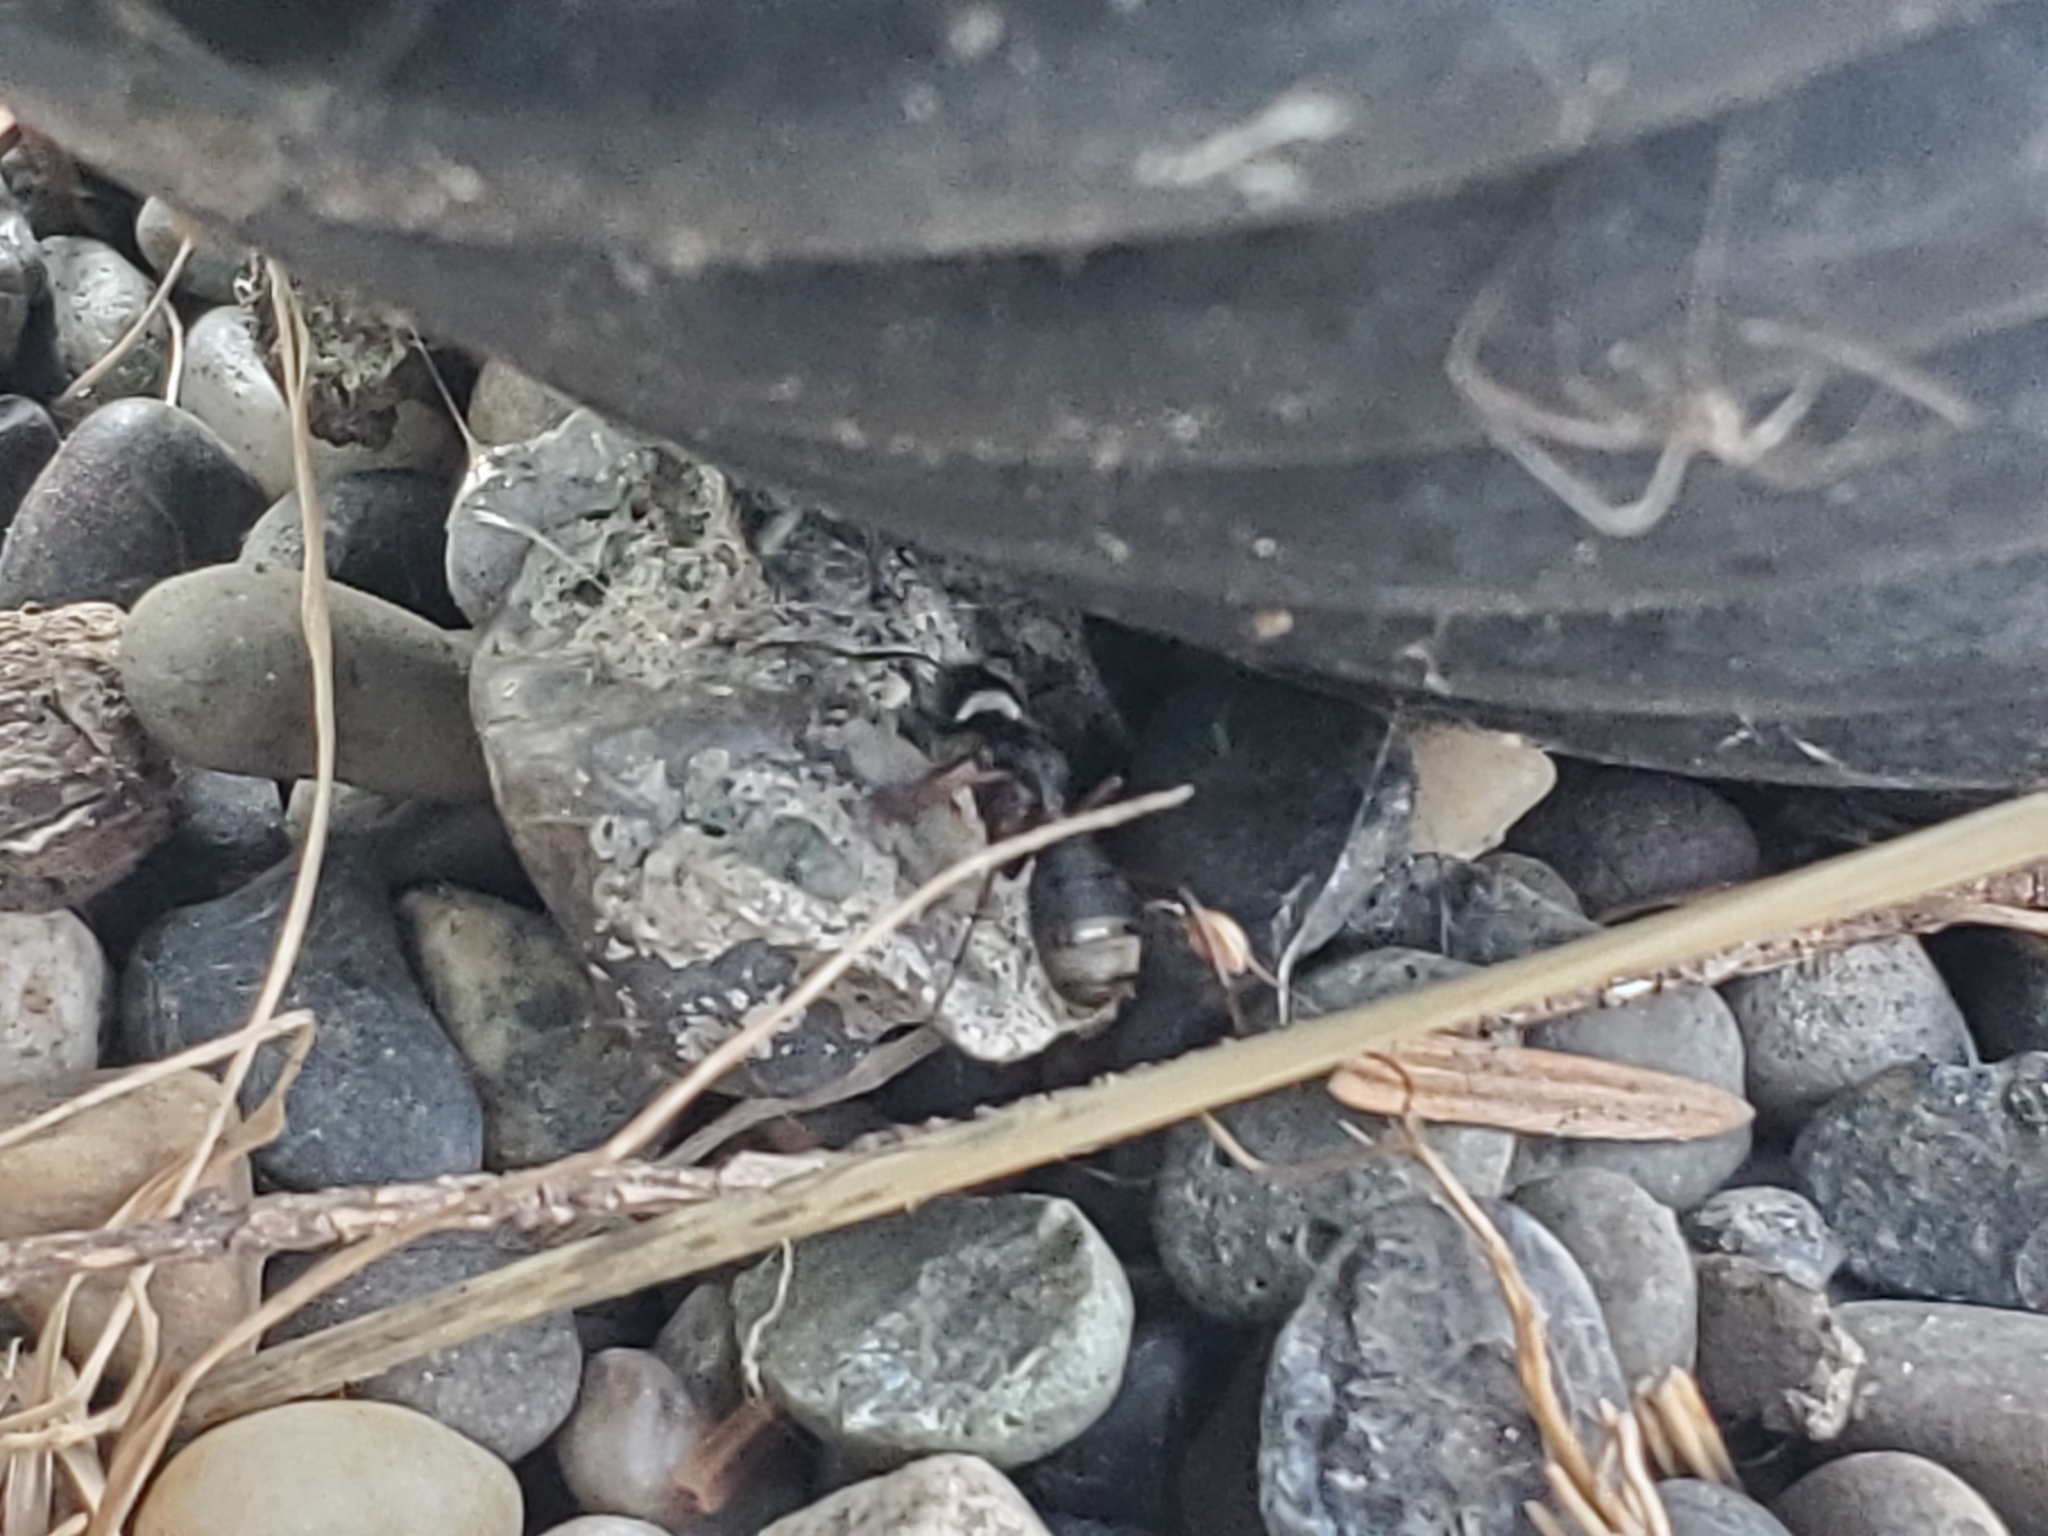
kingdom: Animalia
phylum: Arthropoda
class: Insecta
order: Hymenoptera
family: Formicidae
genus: Camponotus
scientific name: Camponotus modoc
